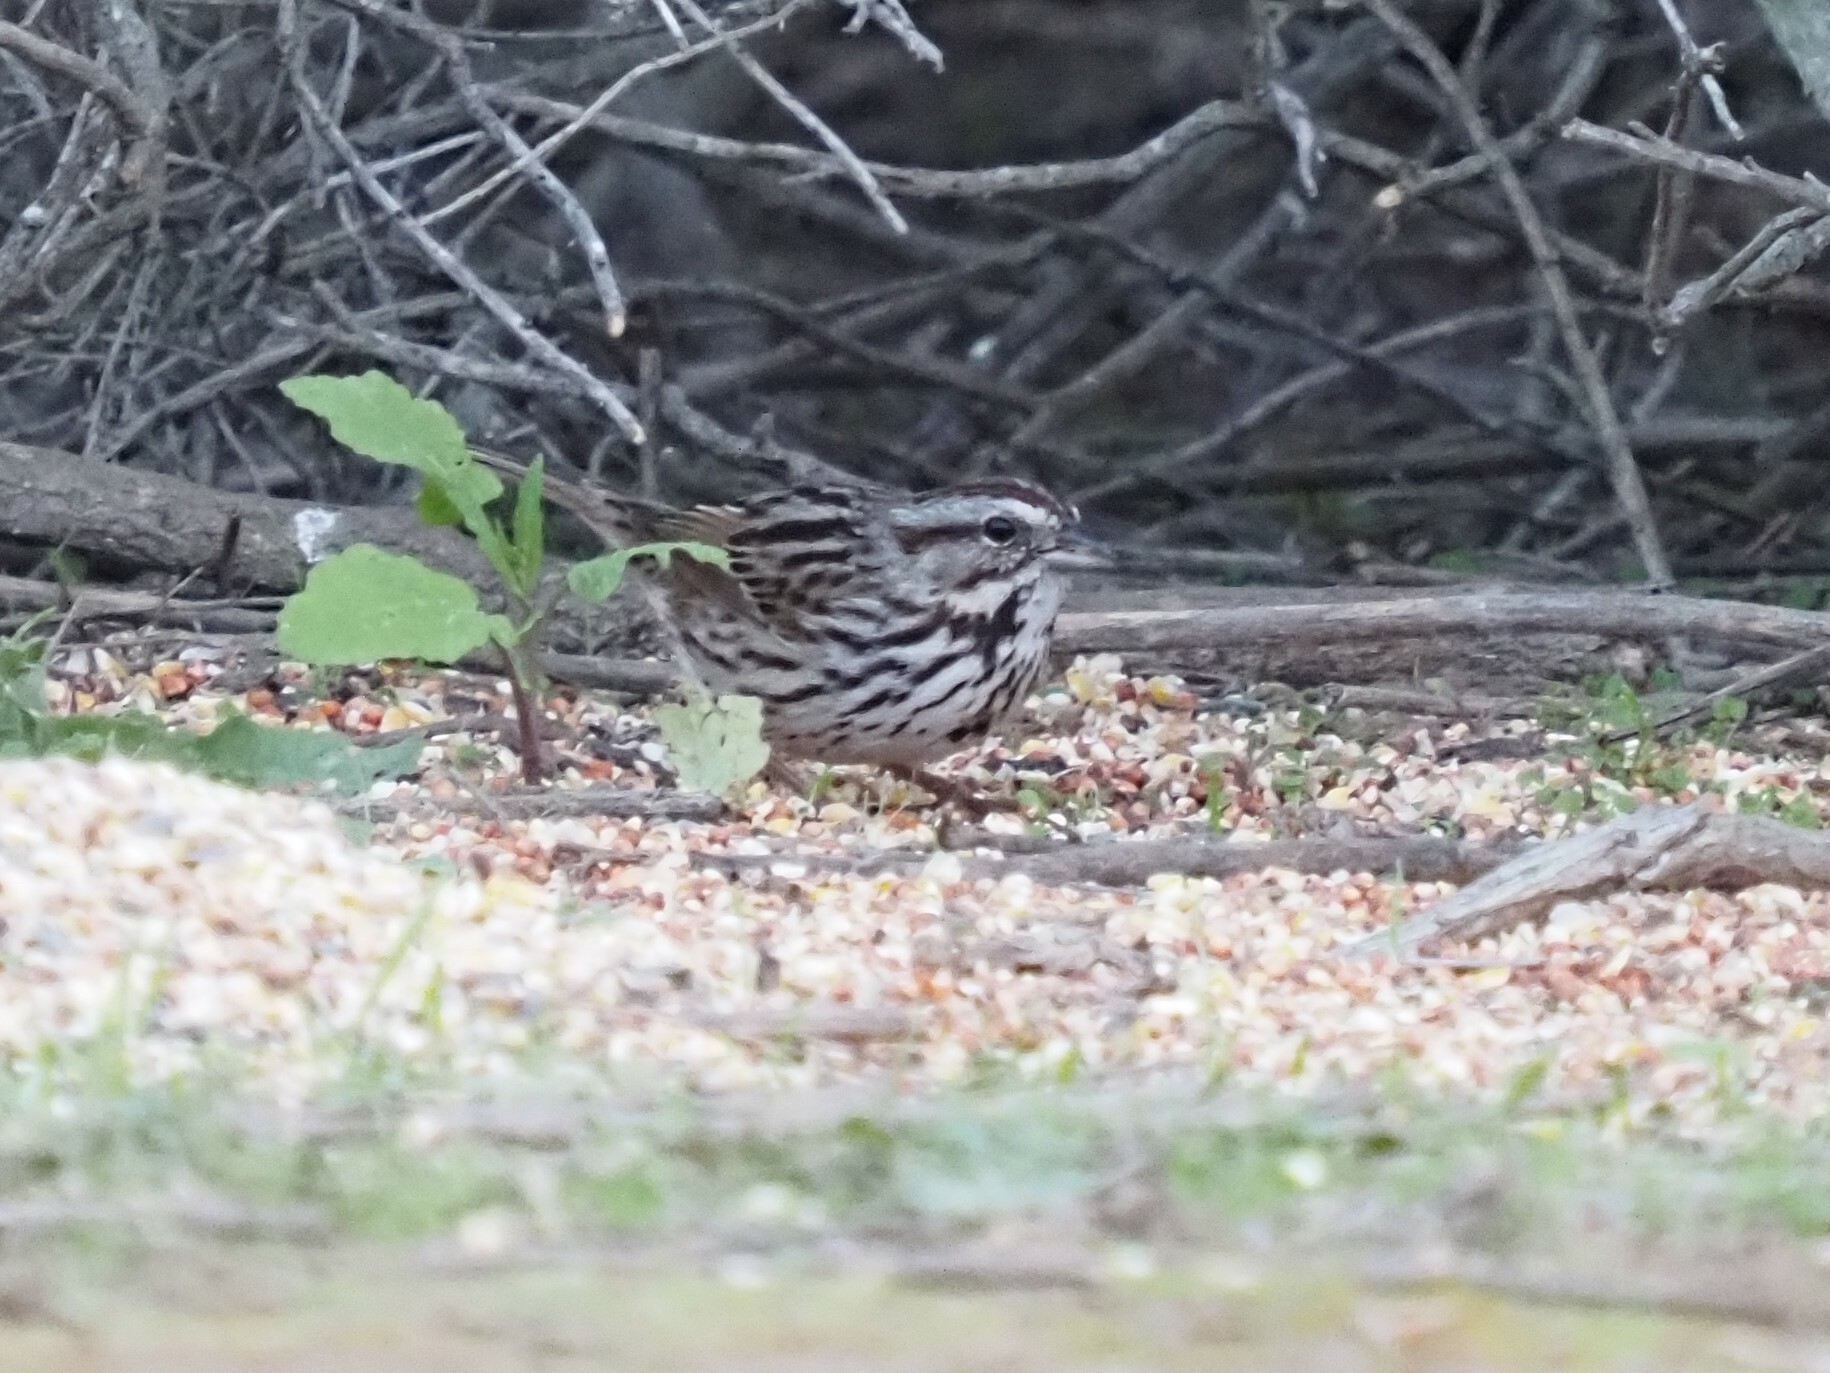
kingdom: Animalia
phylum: Chordata
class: Aves
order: Passeriformes
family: Passerellidae
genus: Melospiza
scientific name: Melospiza melodia
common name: Song sparrow
